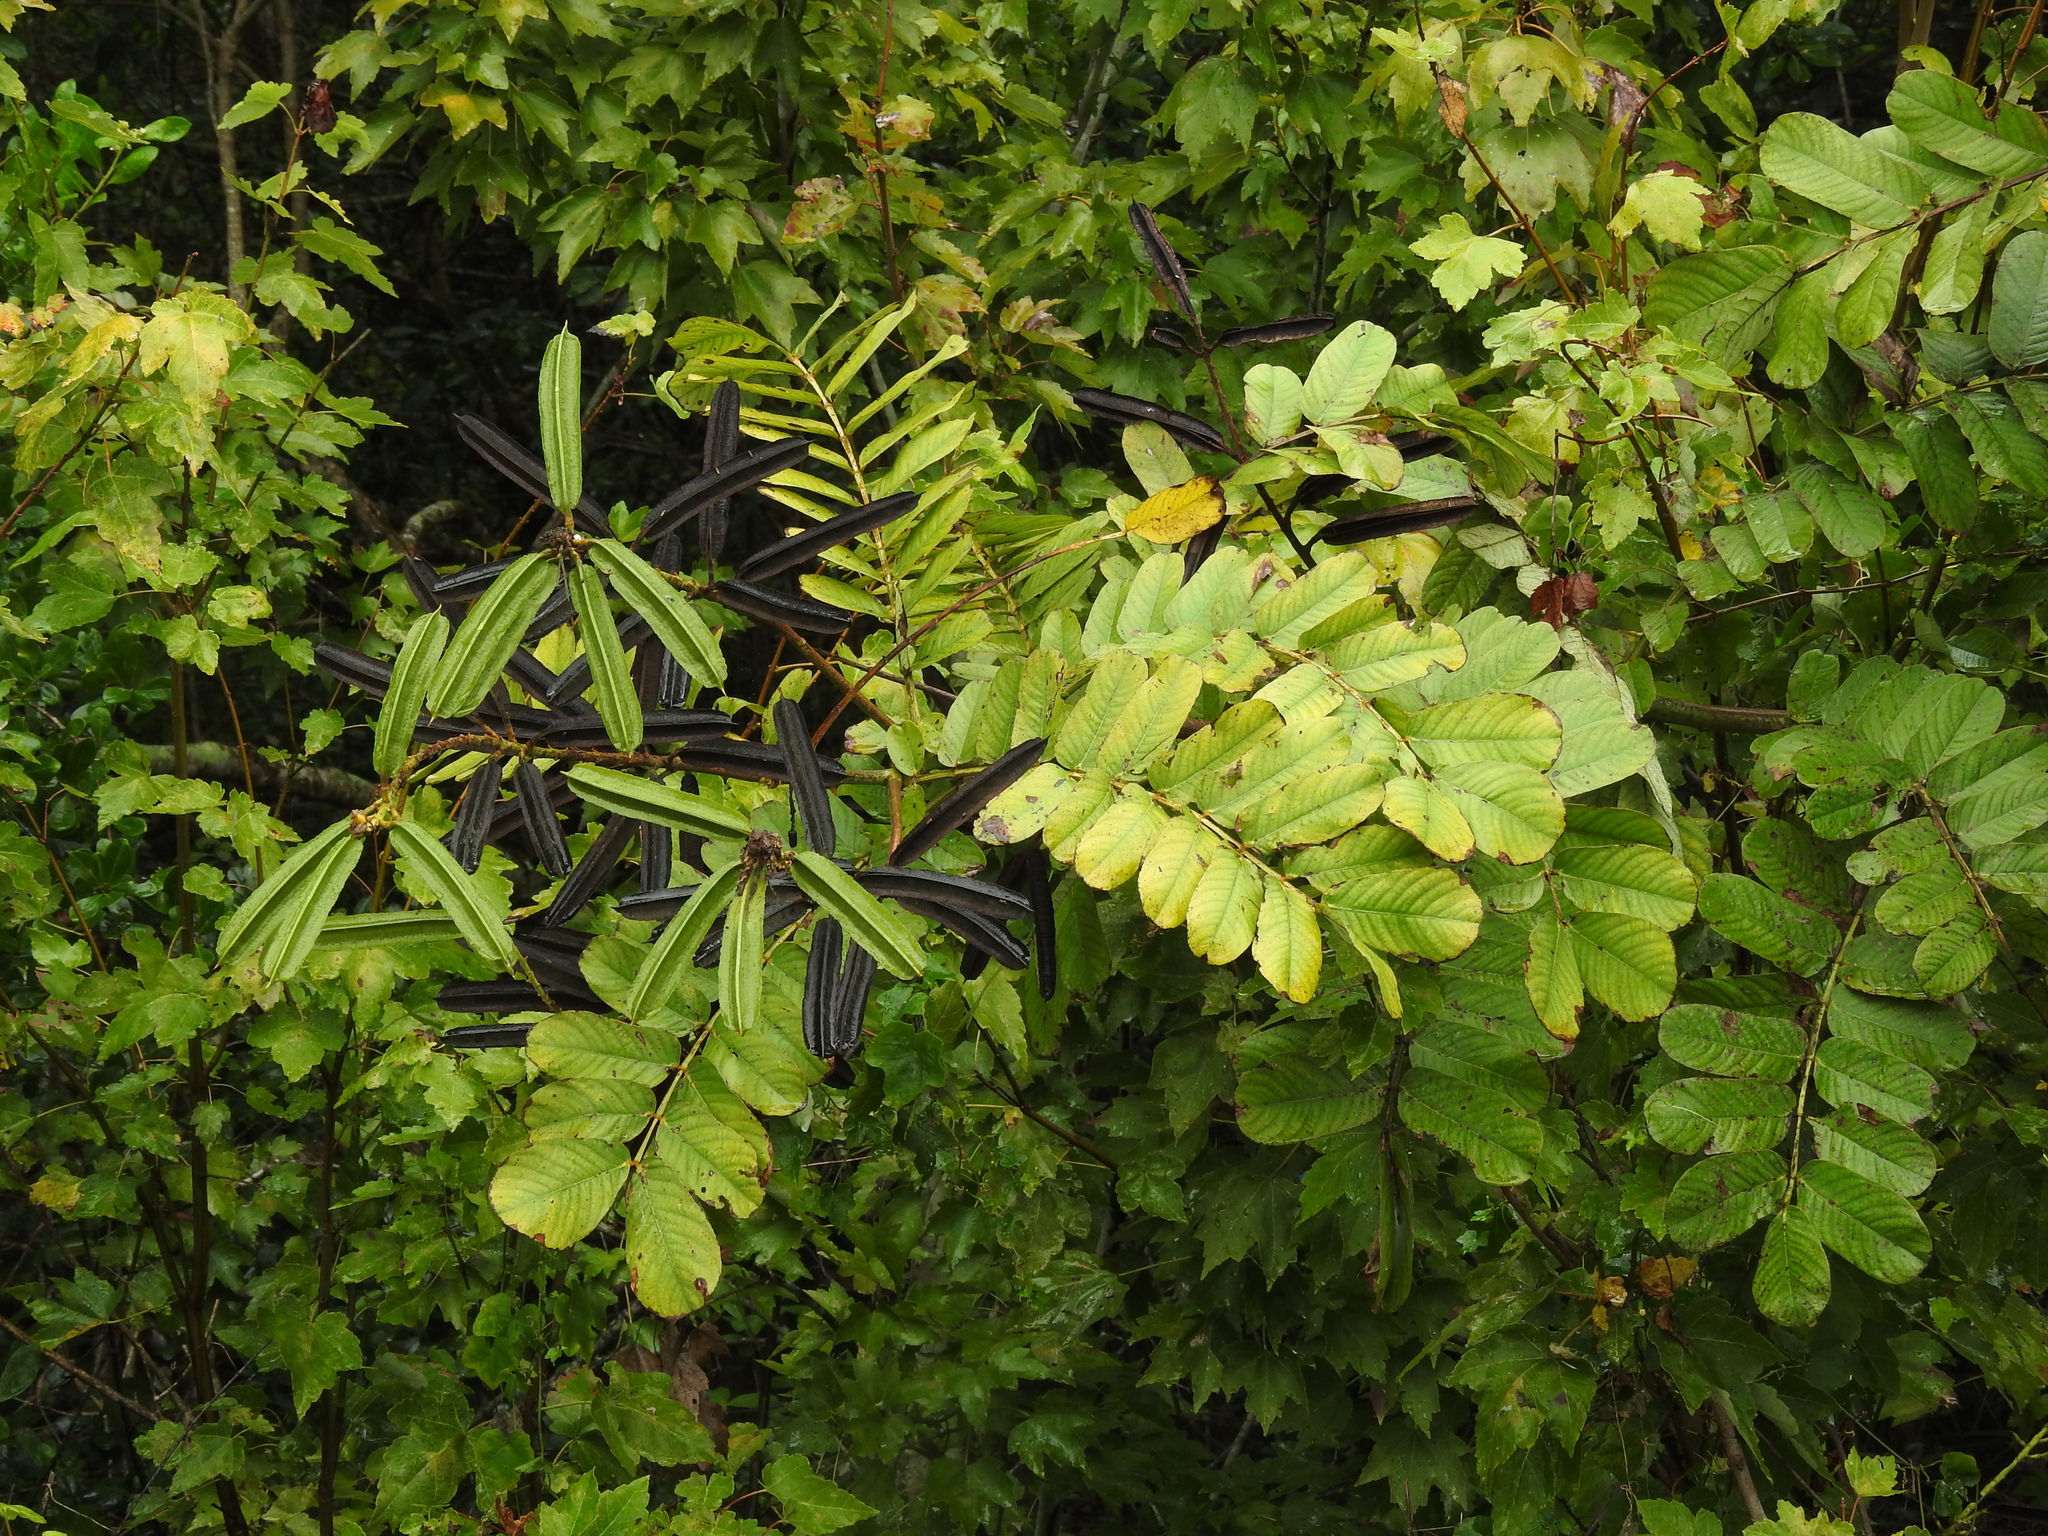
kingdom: Plantae
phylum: Tracheophyta
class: Magnoliopsida
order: Fabales
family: Fabaceae
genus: Senna
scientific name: Senna alata
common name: Emperor's candlesticks
